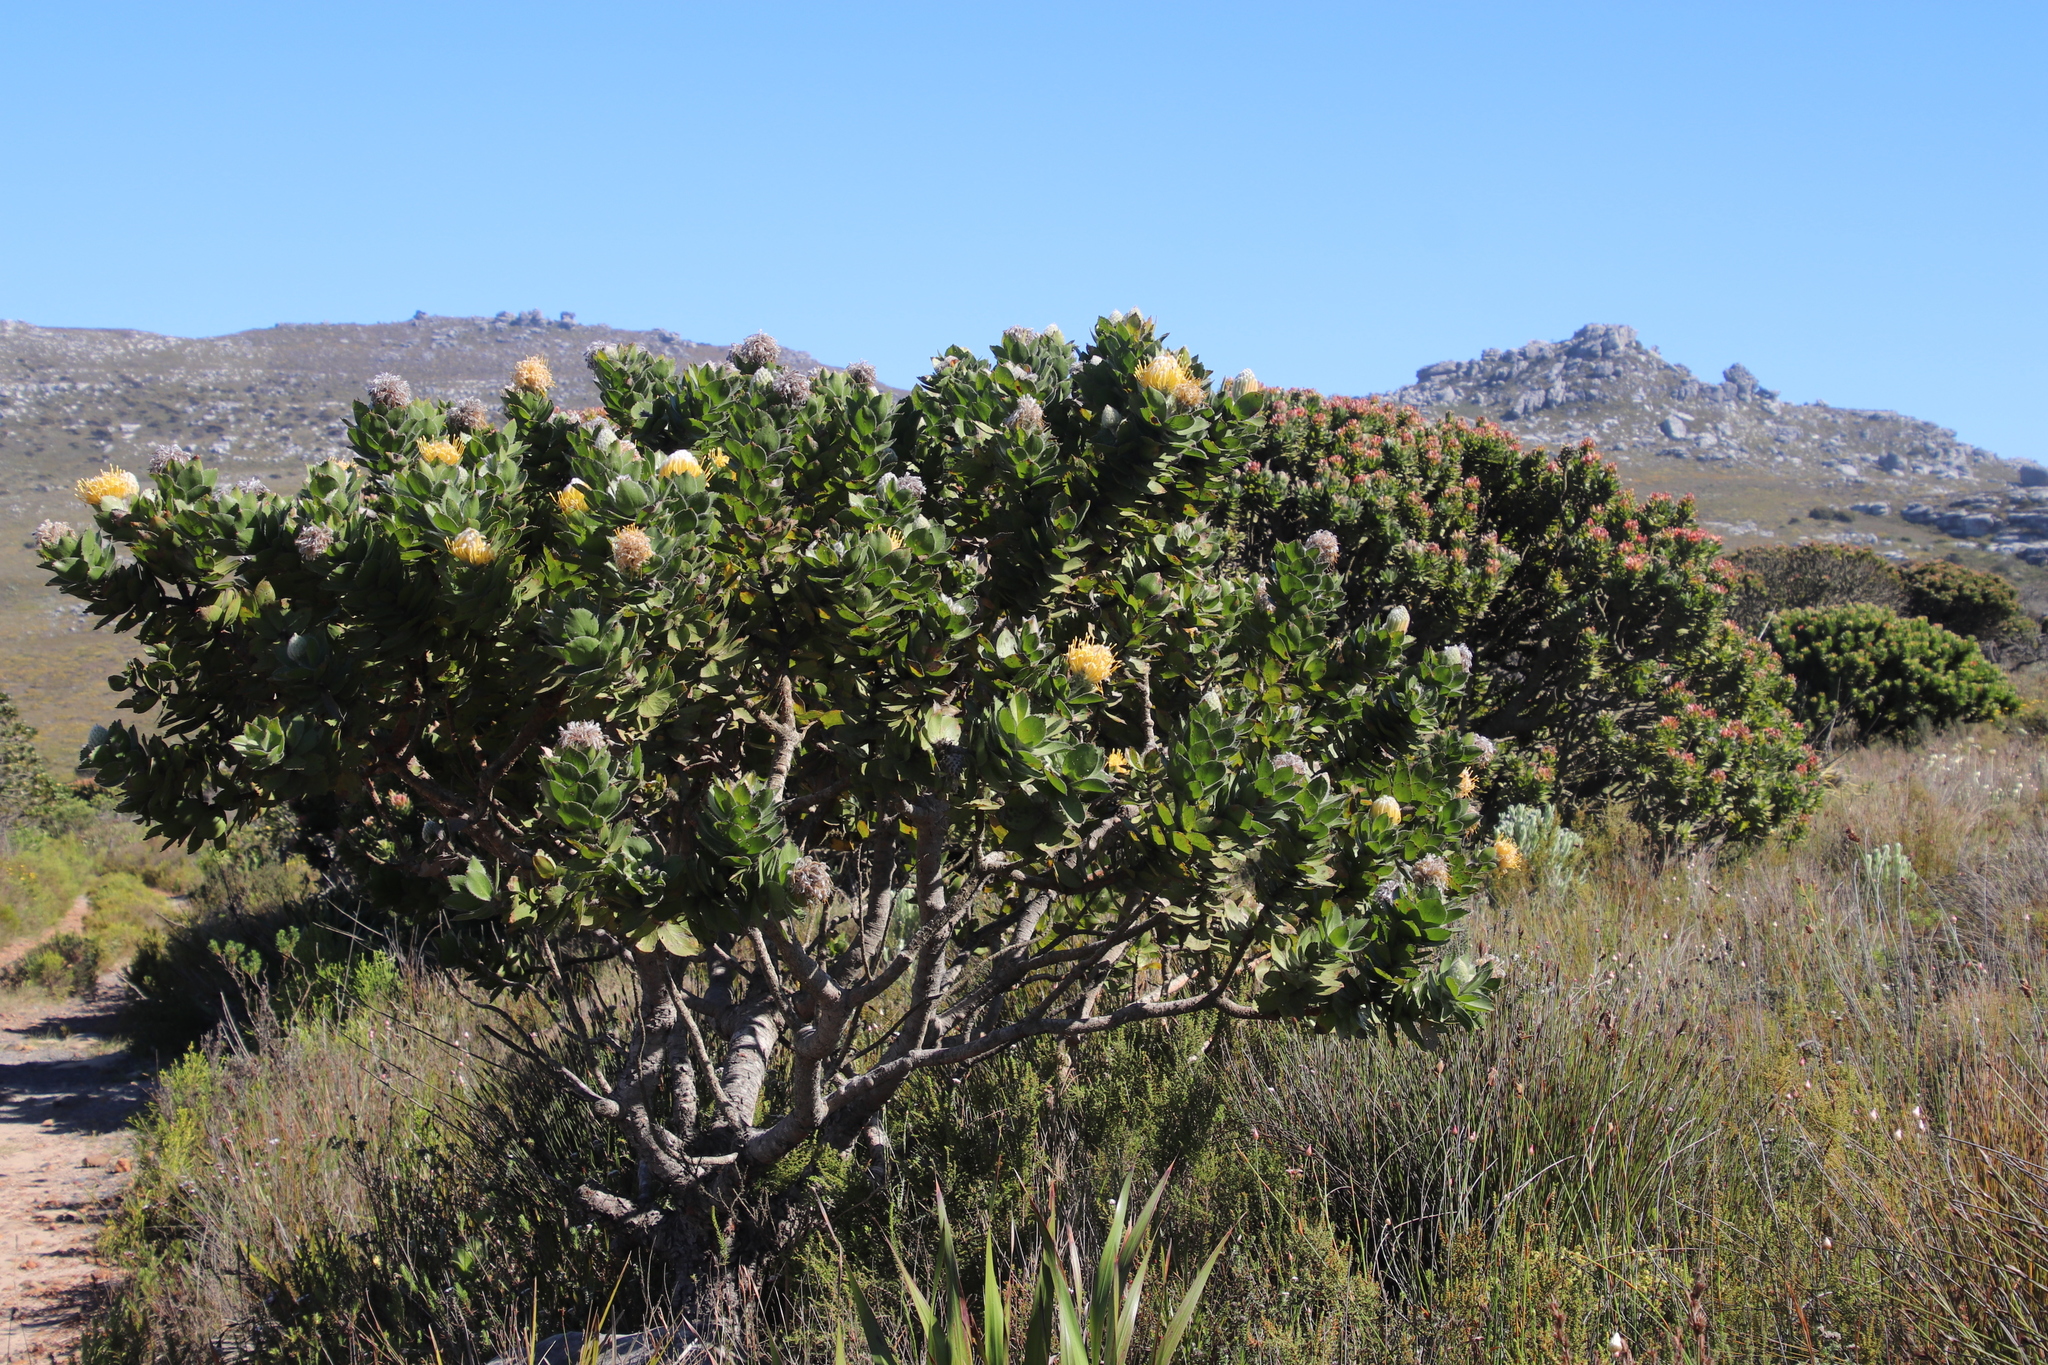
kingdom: Plantae
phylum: Tracheophyta
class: Magnoliopsida
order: Proteales
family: Proteaceae
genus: Leucospermum
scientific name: Leucospermum conocarpodendron
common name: Tree pincushion
